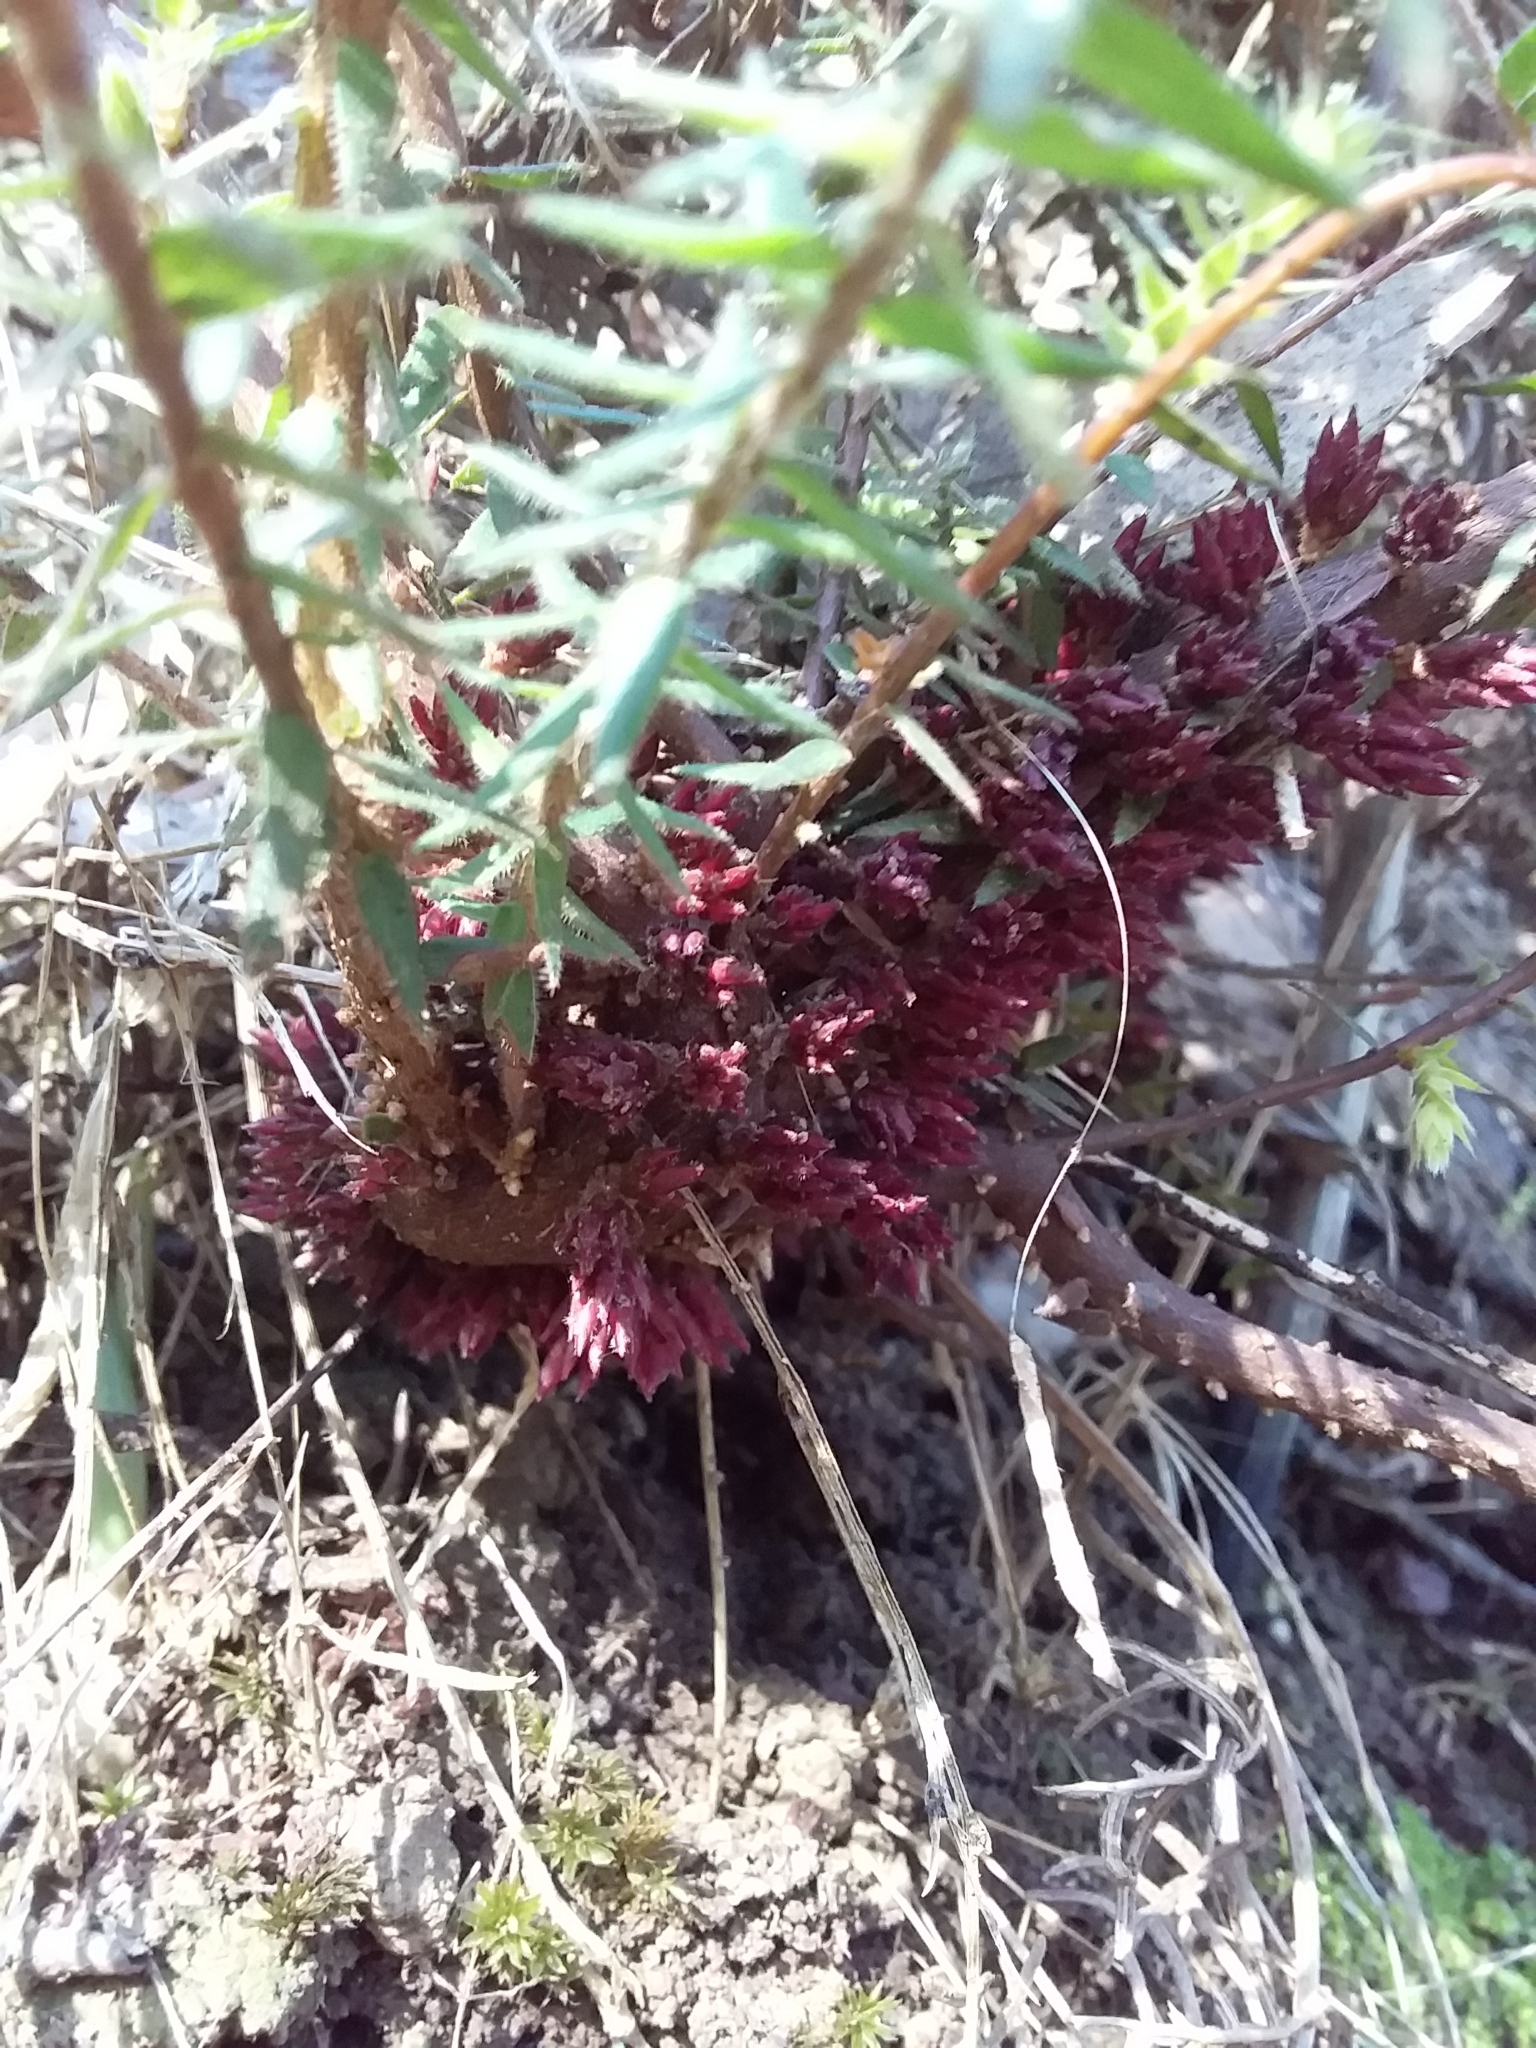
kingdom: Plantae
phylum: Tracheophyta
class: Magnoliopsida
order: Ericales
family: Ericaceae
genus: Acrotriche
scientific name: Acrotriche fasciculiflora
